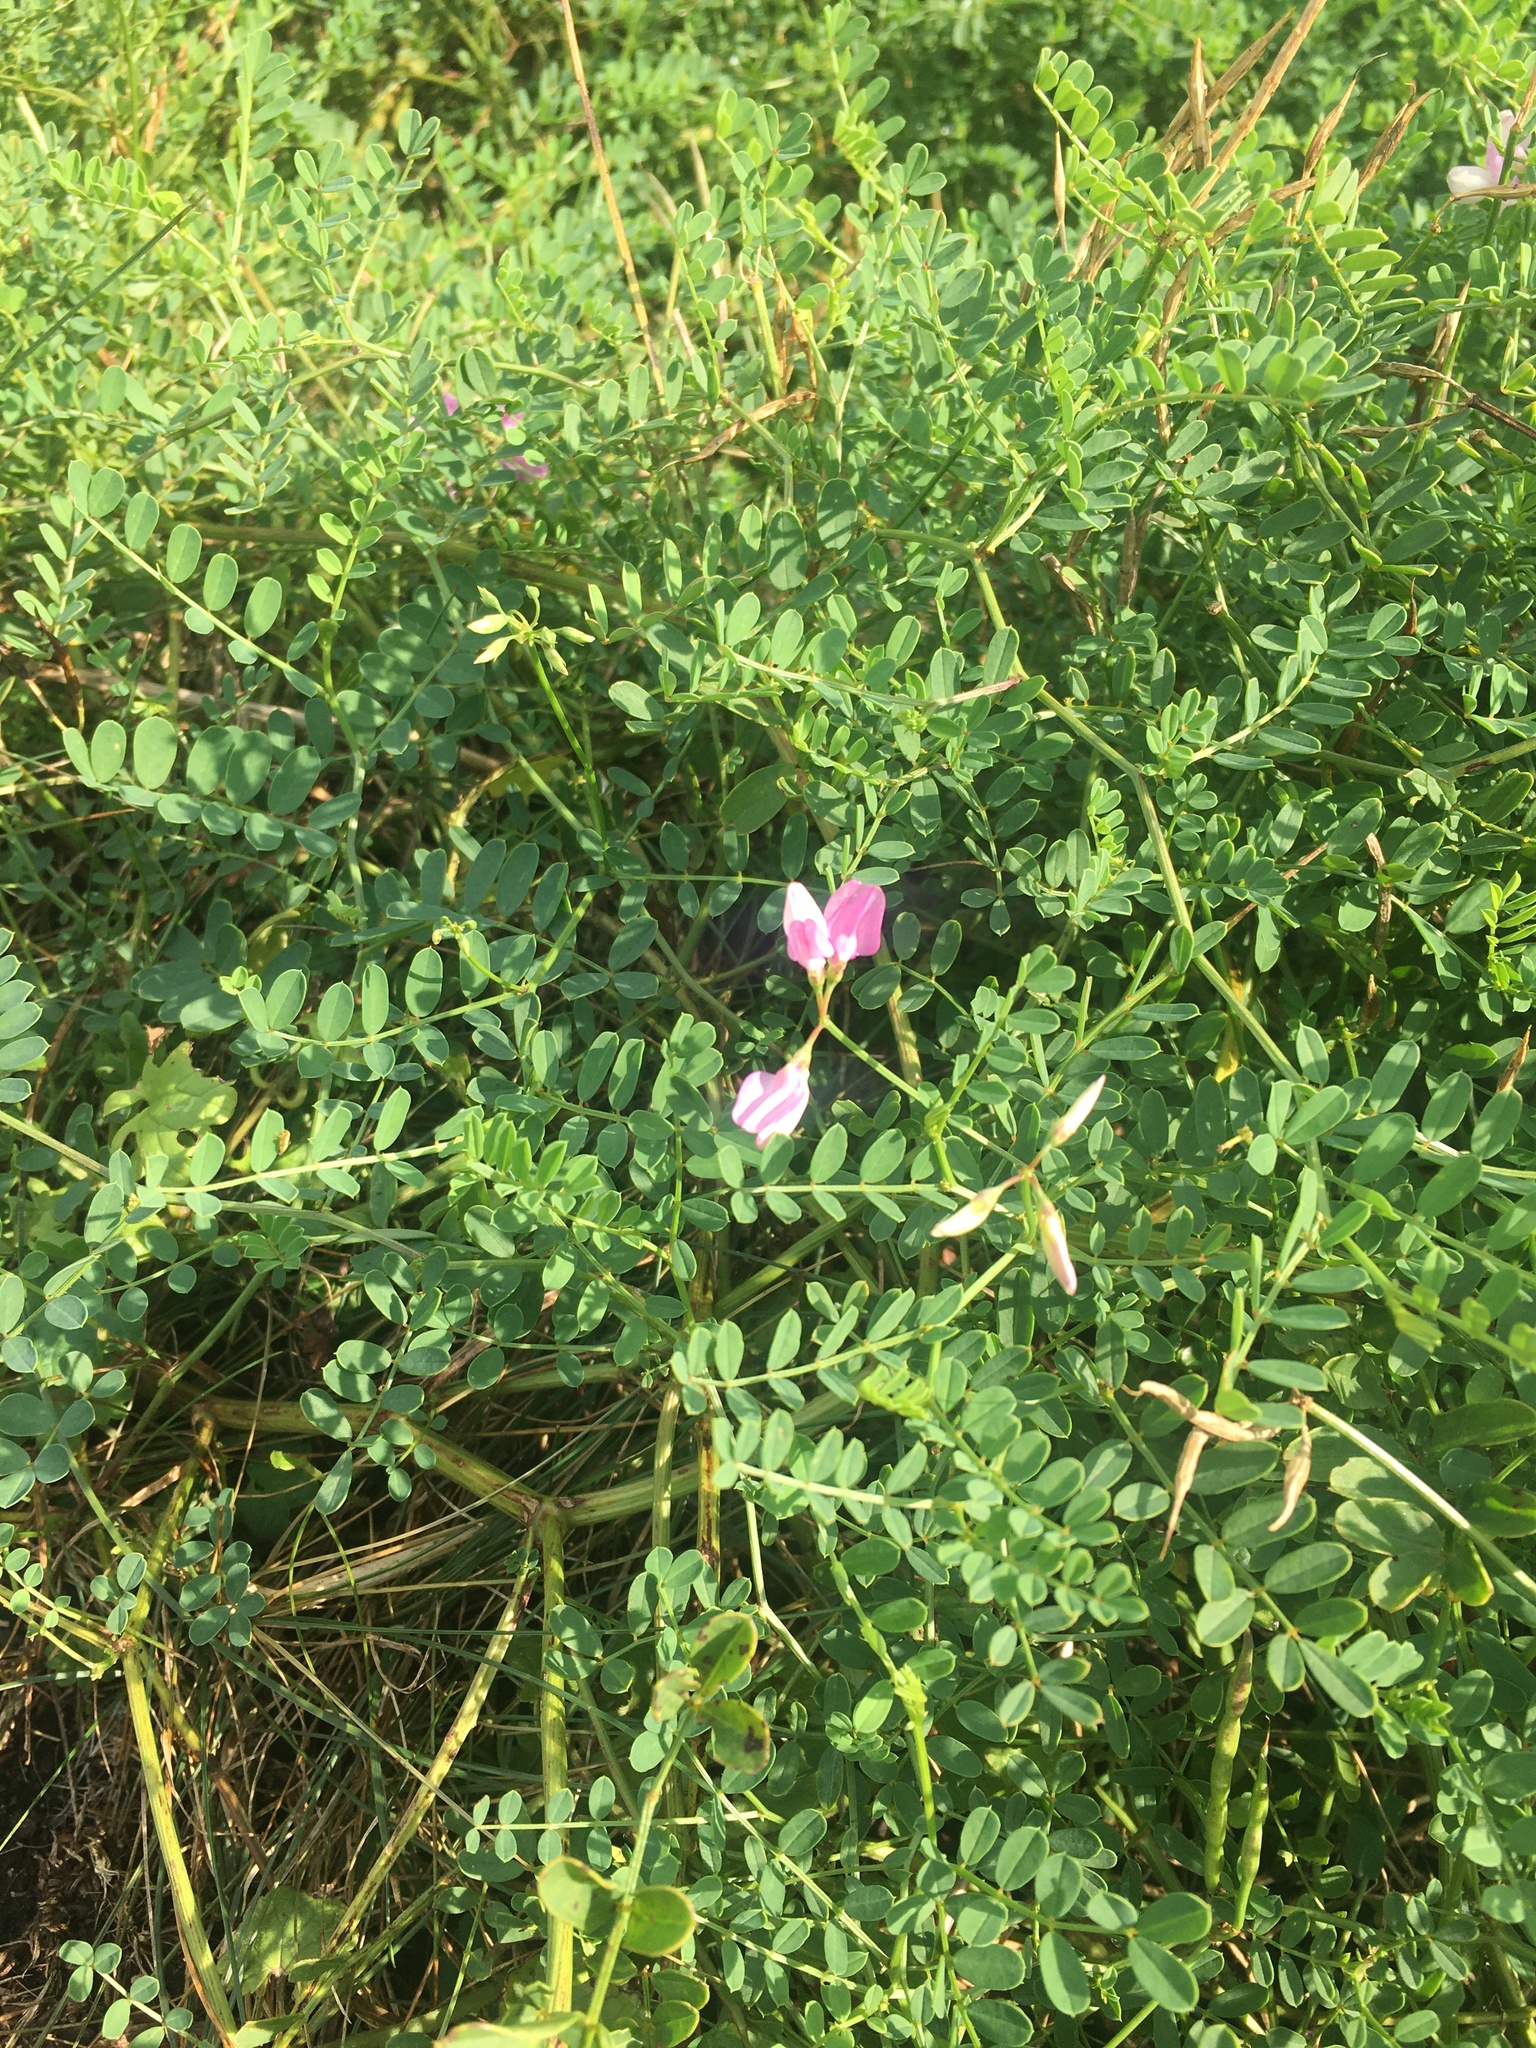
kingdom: Plantae
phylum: Tracheophyta
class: Magnoliopsida
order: Fabales
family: Fabaceae
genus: Coronilla
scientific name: Coronilla varia
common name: Crownvetch
